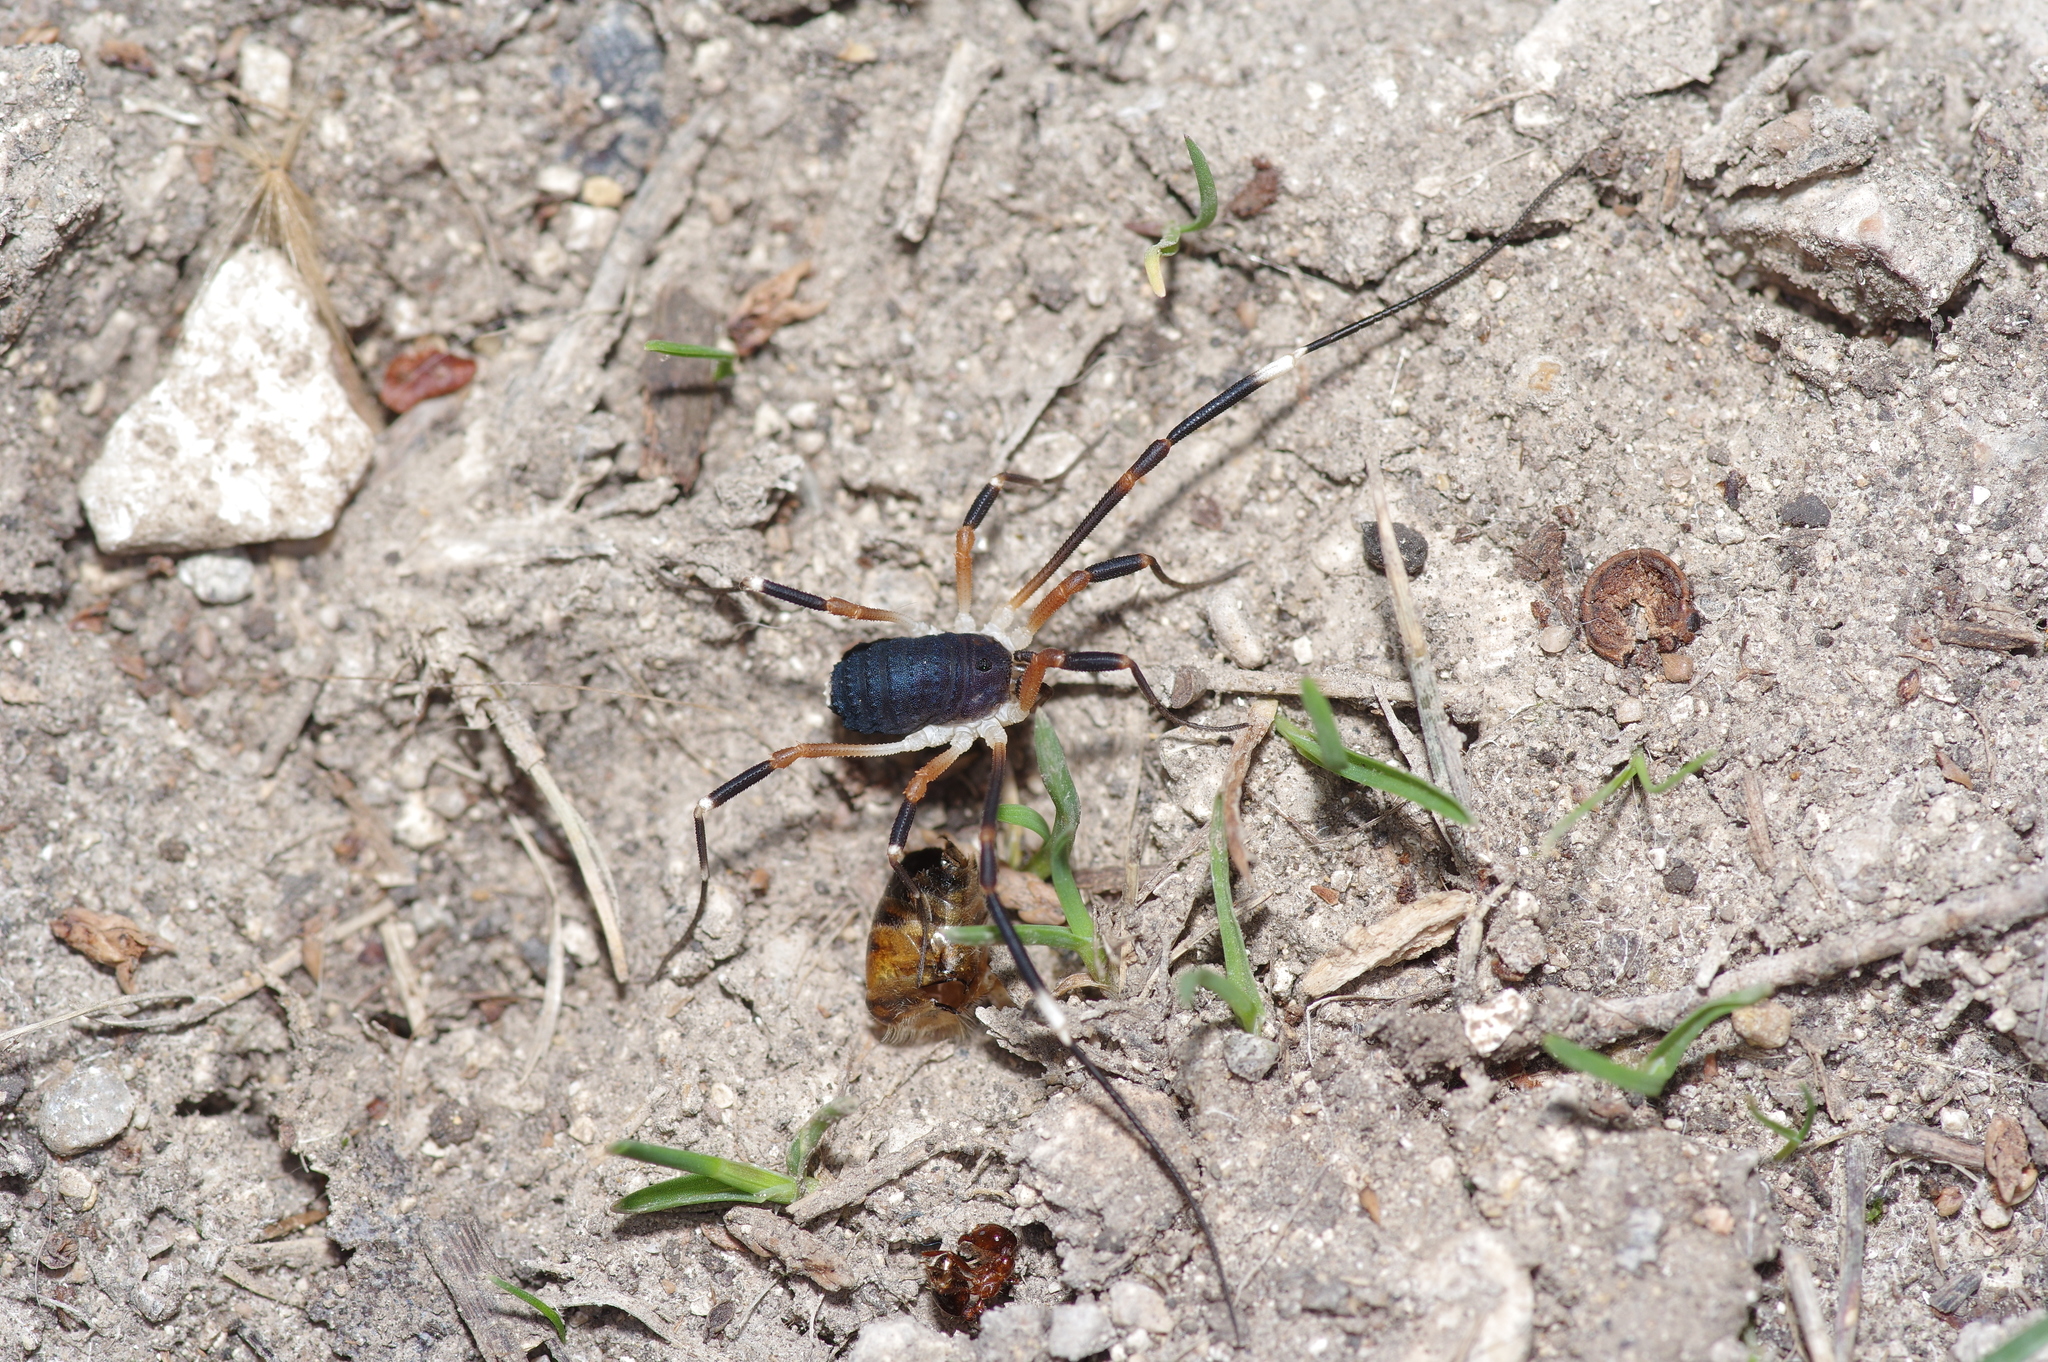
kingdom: Animalia
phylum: Arthropoda
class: Arachnida
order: Opiliones
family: Globipedidae
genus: Dalquestia
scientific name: Dalquestia formosa
